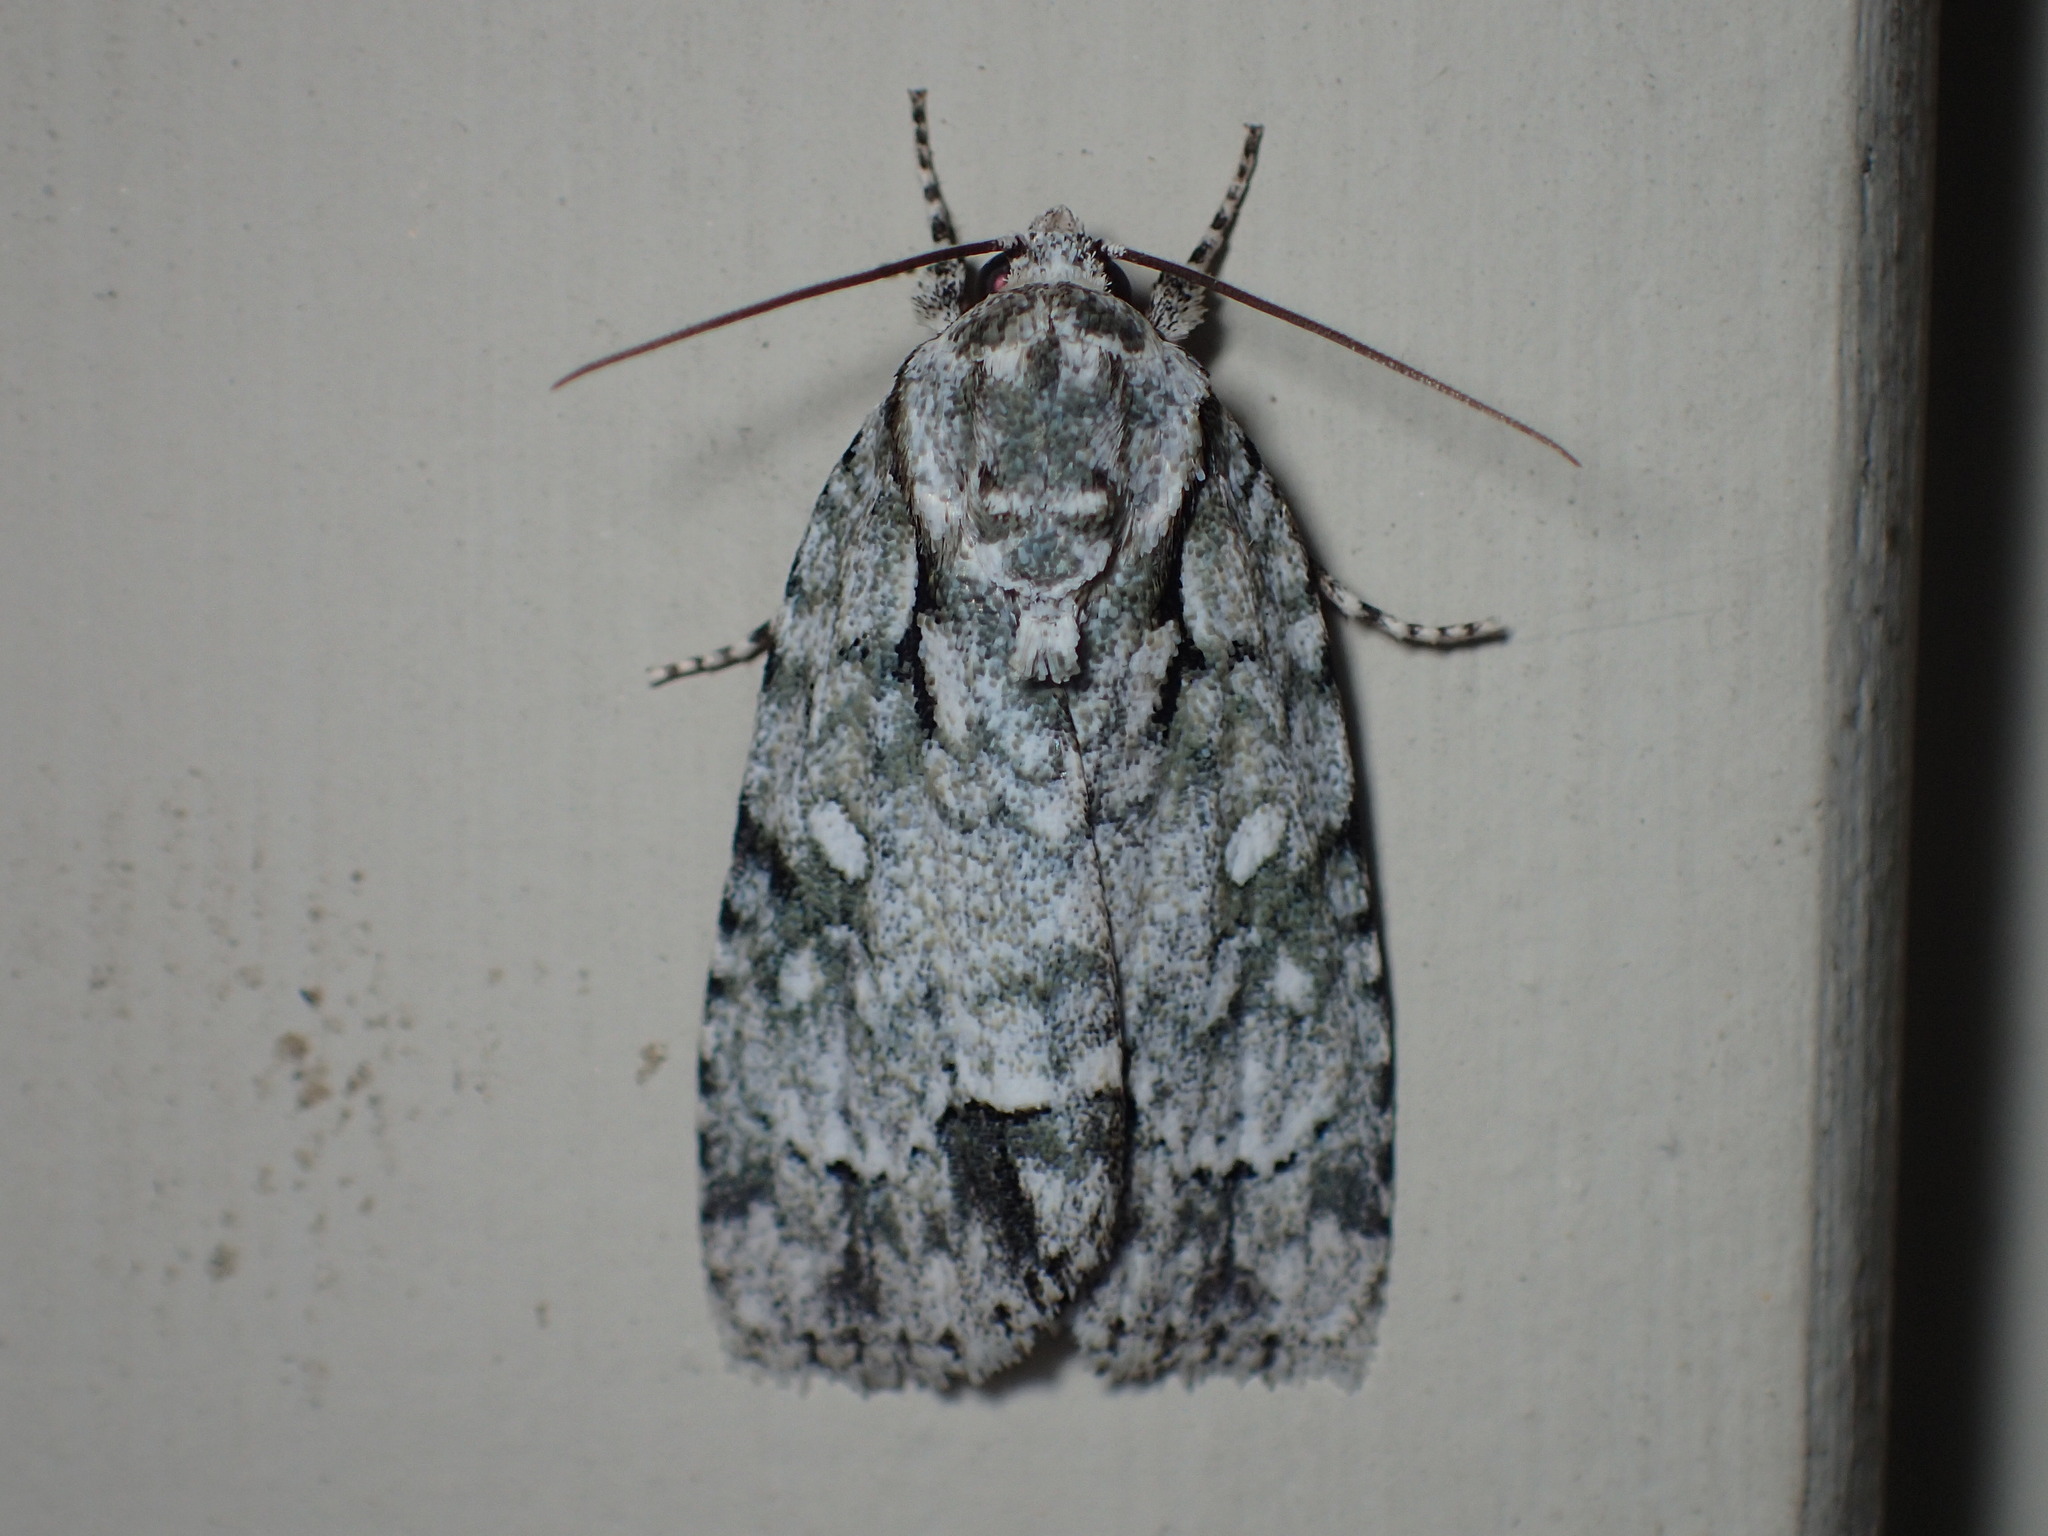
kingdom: Animalia
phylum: Arthropoda
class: Insecta
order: Lepidoptera
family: Noctuidae
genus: Acronicta
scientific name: Acronicta vinnula
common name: Delightful dagger
